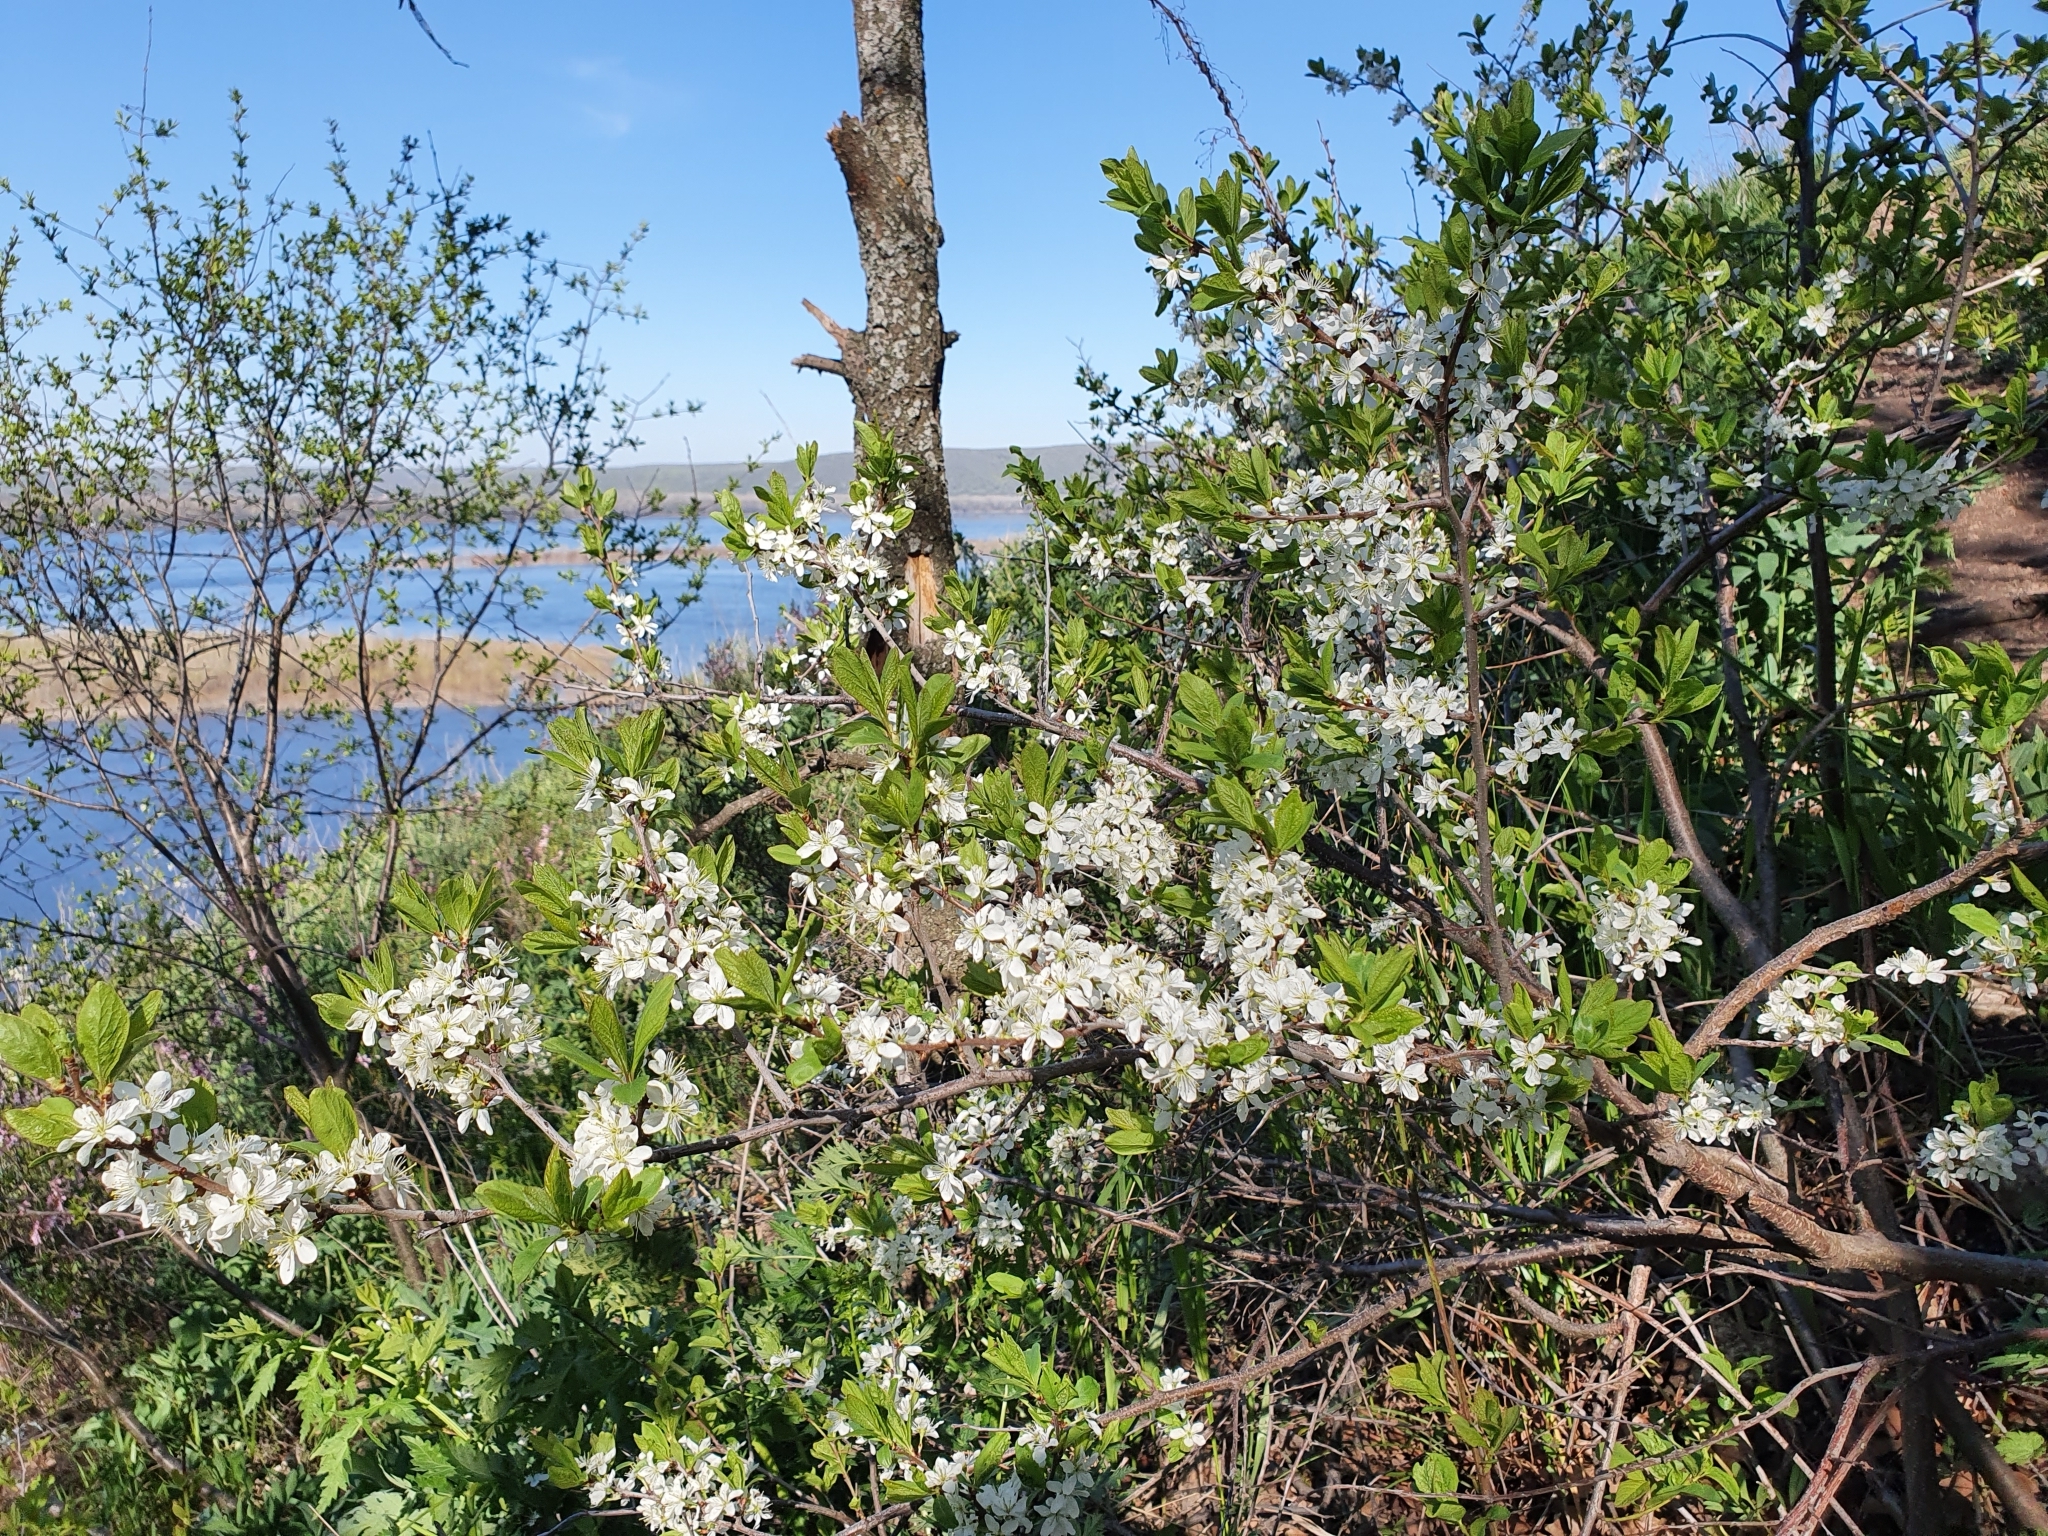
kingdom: Plantae
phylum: Tracheophyta
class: Magnoliopsida
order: Rosales
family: Rosaceae
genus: Prunus
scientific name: Prunus spinosa
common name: Blackthorn
